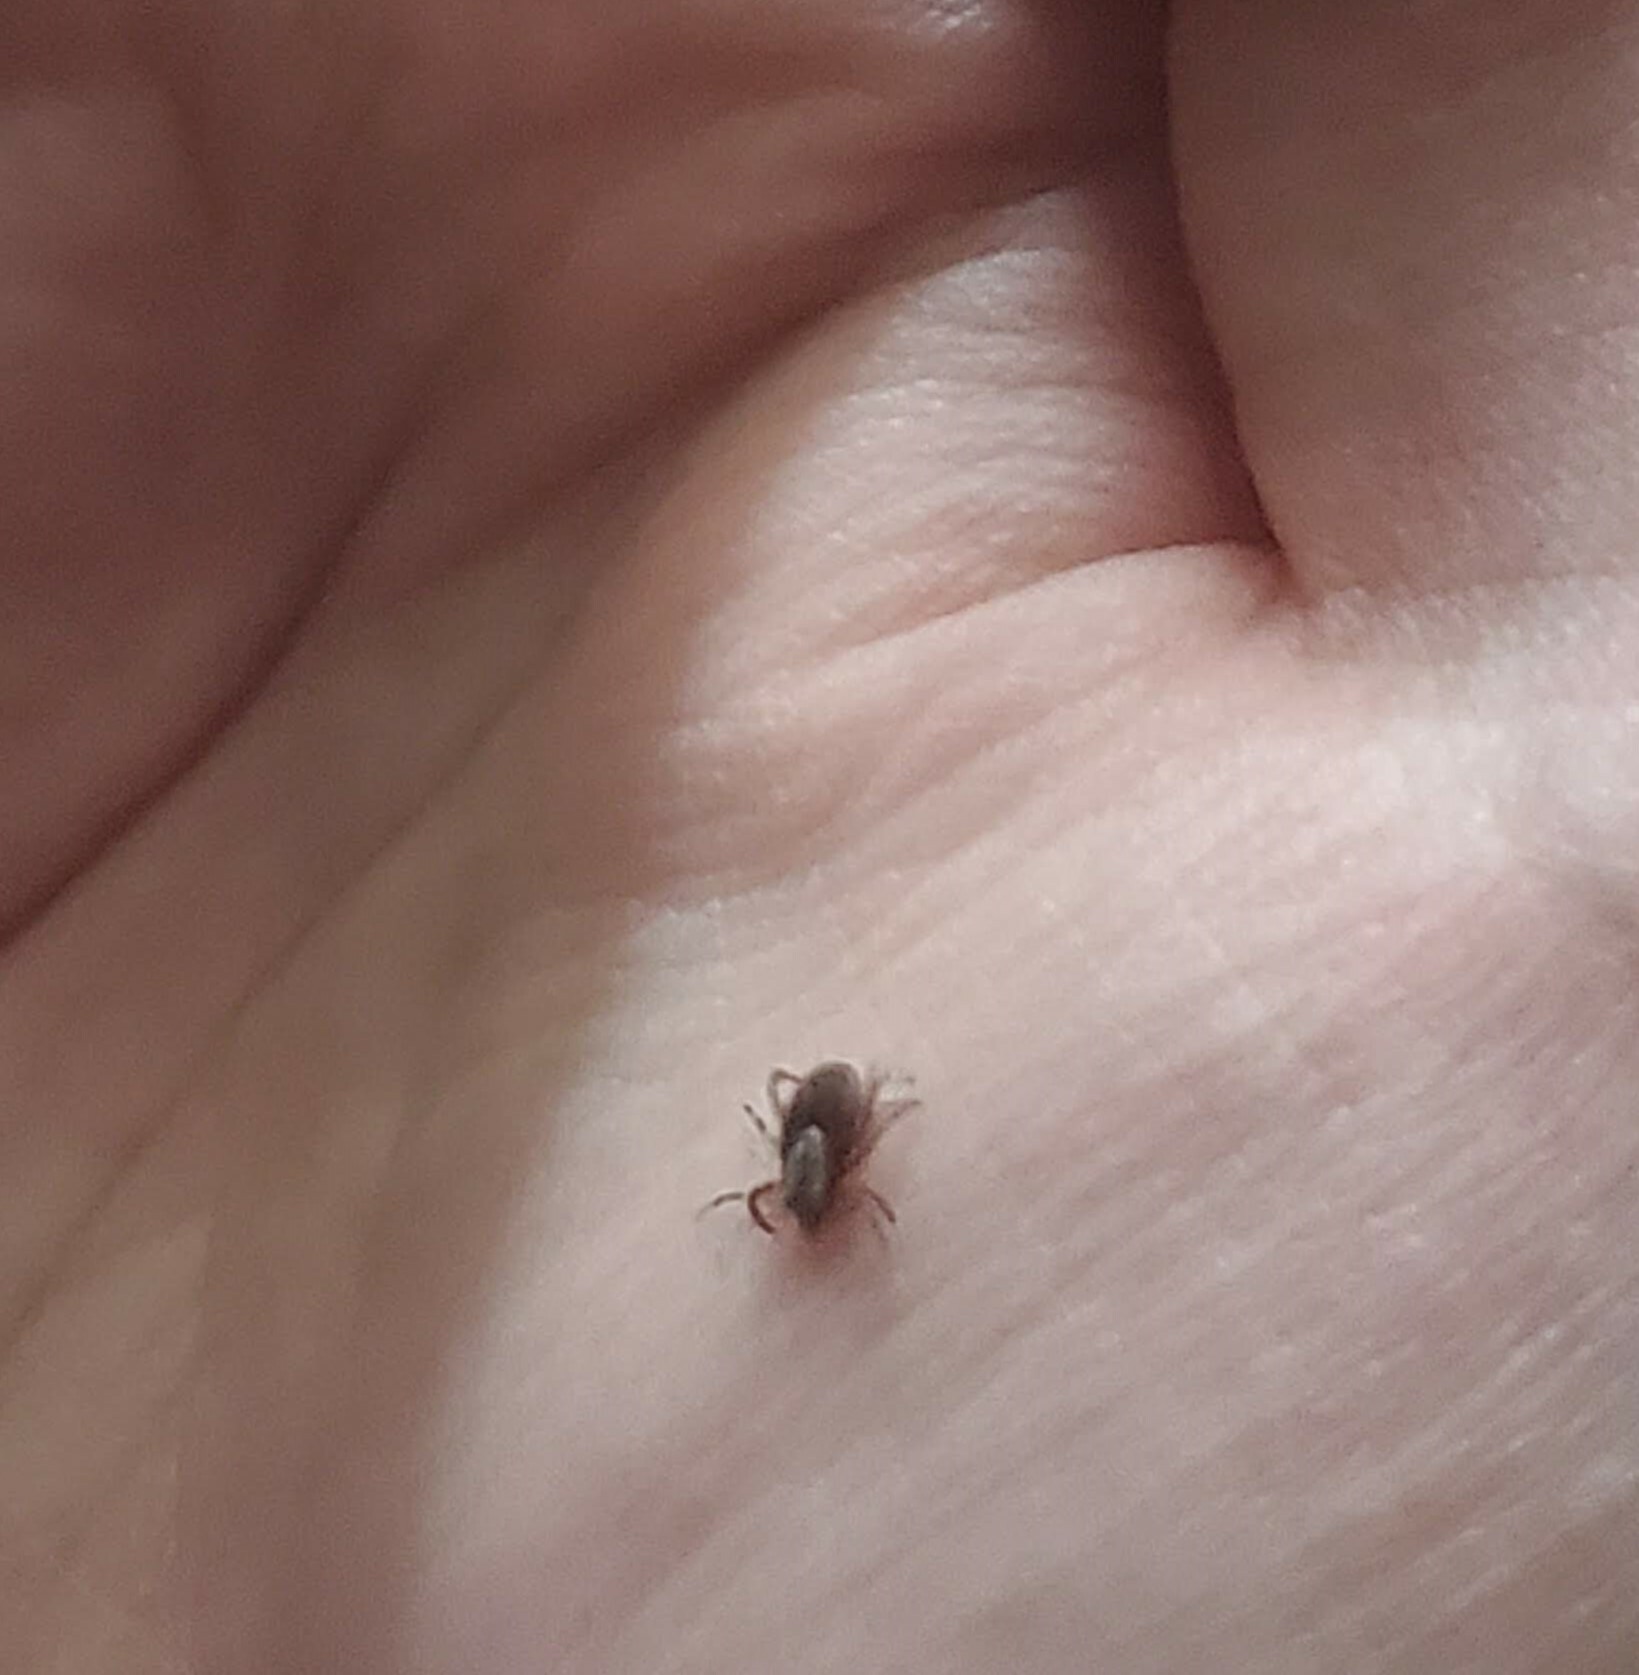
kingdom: Animalia
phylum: Arthropoda
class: Arachnida
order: Ixodida
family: Ixodidae
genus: Dermacentor
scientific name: Dermacentor variabilis
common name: American dog tick
